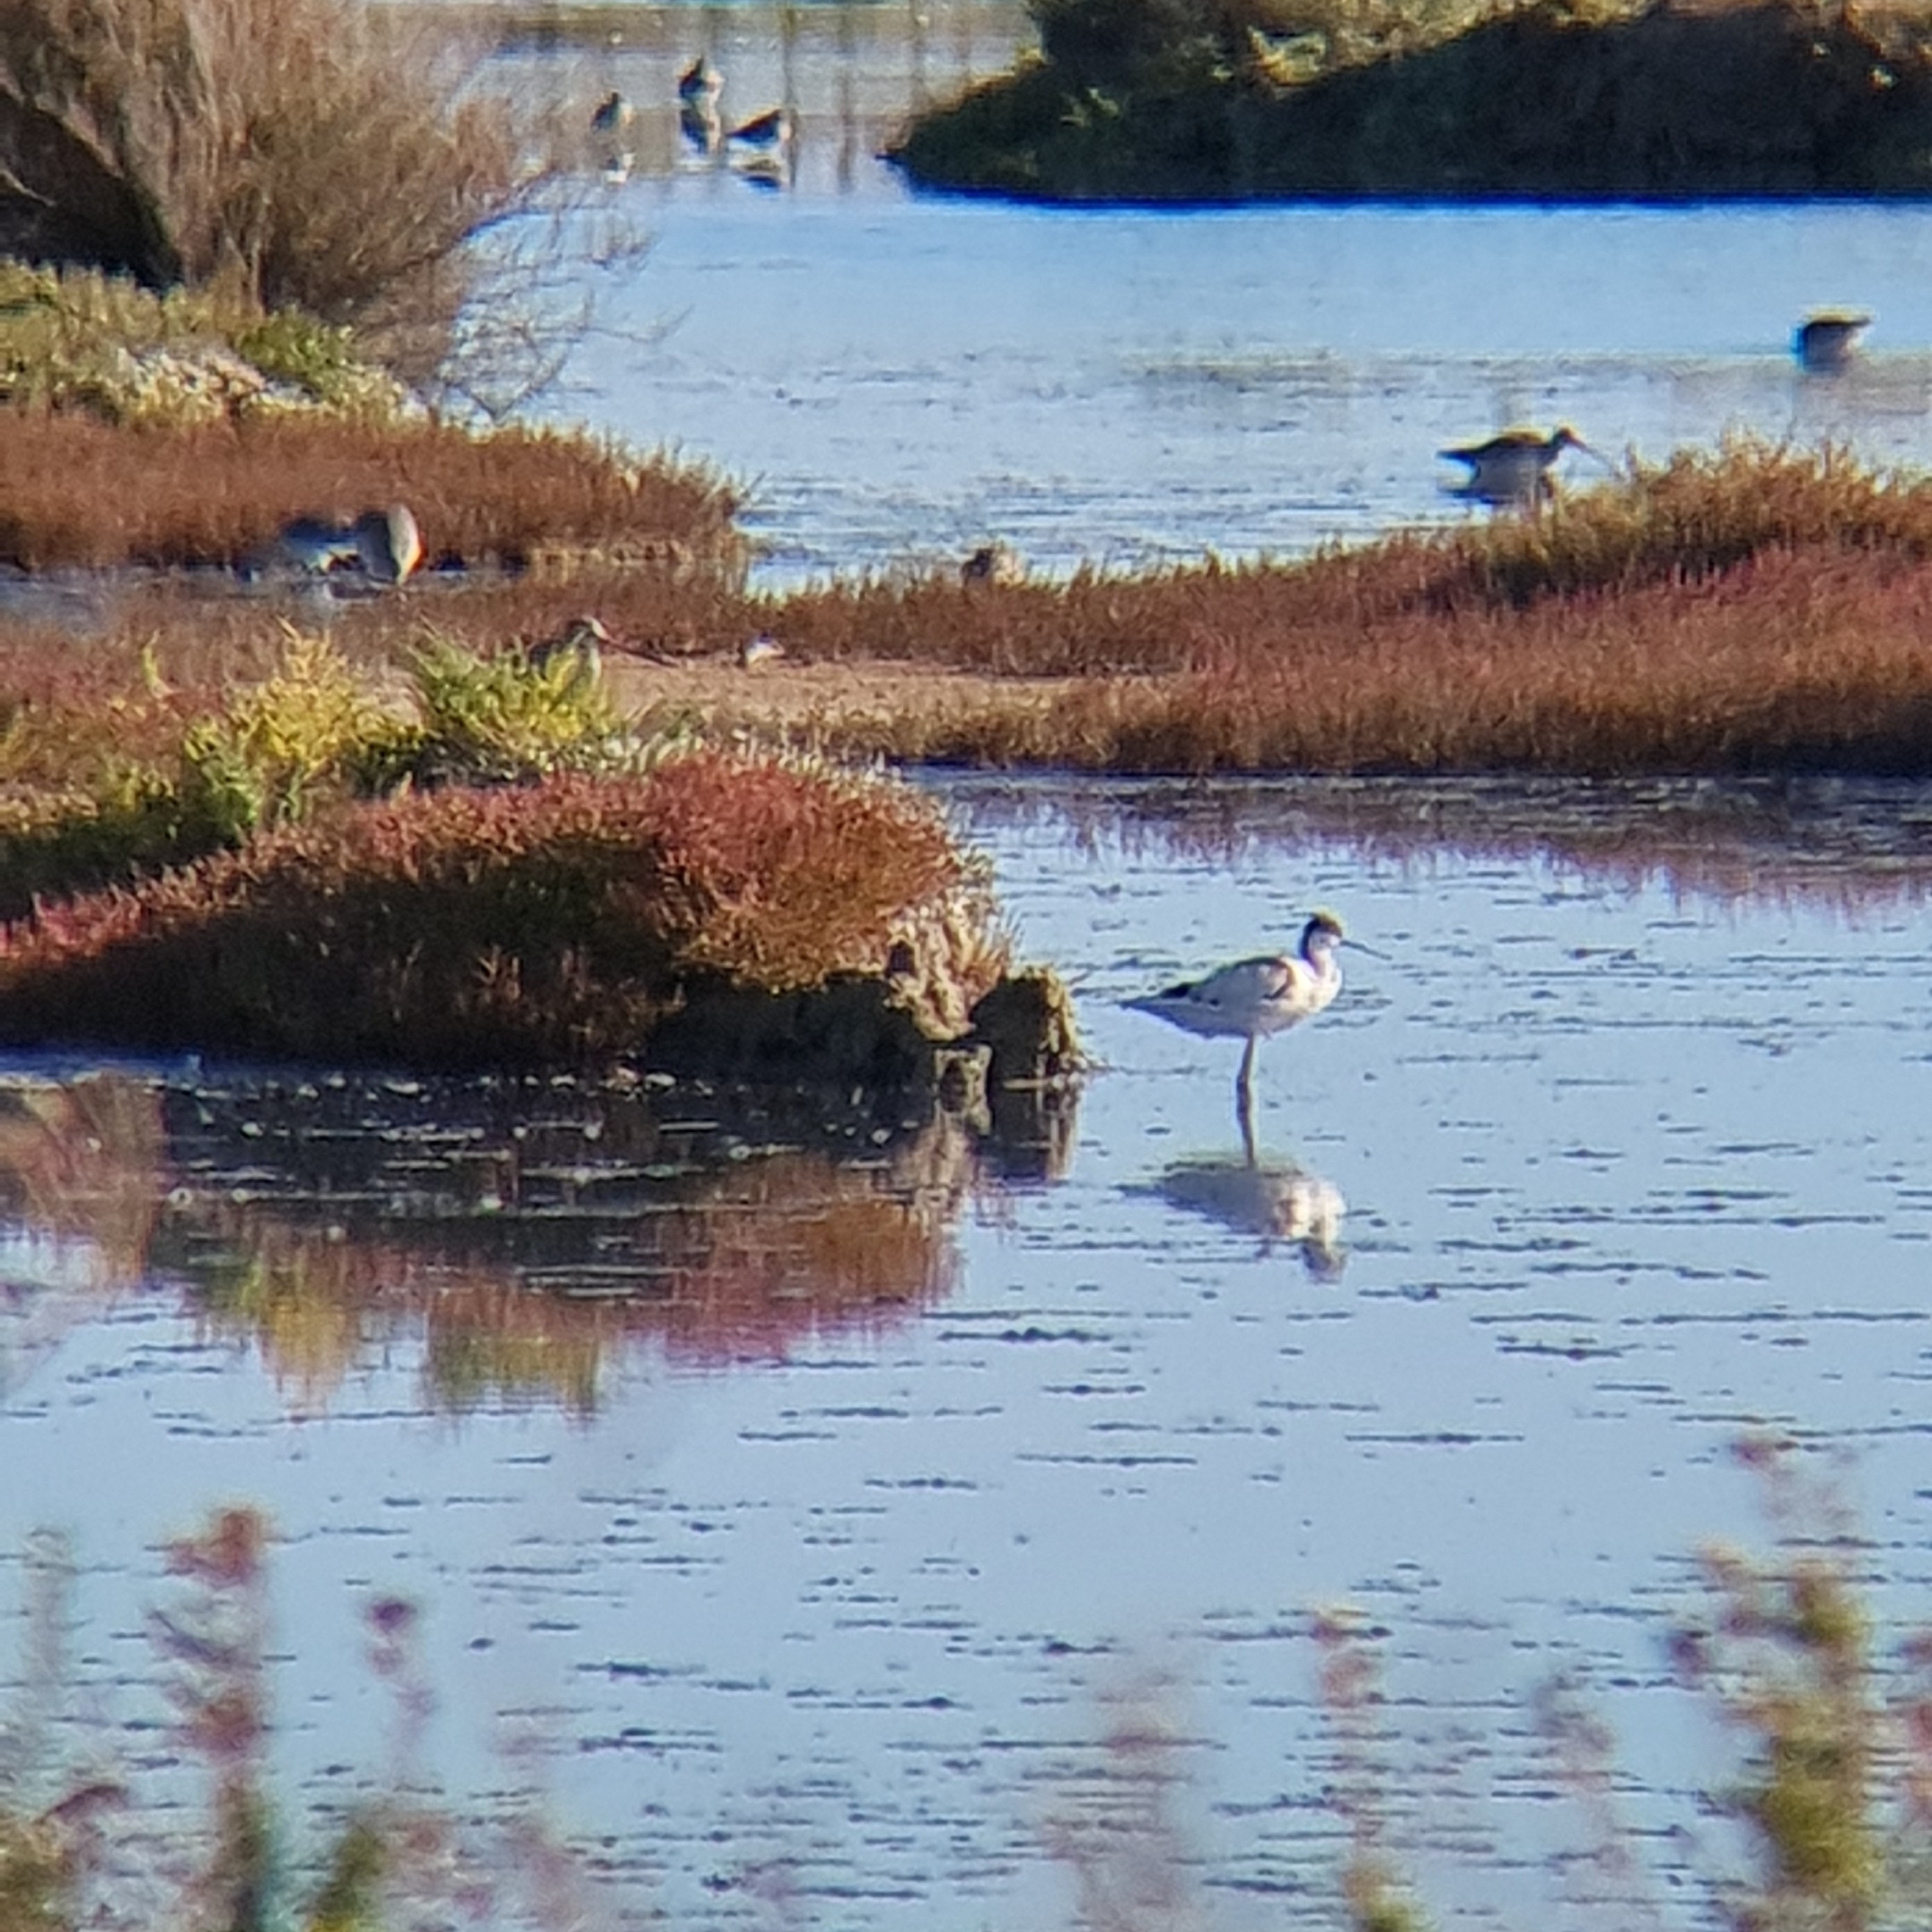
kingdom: Animalia
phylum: Chordata
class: Aves
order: Charadriiformes
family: Recurvirostridae
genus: Recurvirostra
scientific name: Recurvirostra avosetta
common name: Pied avocet
